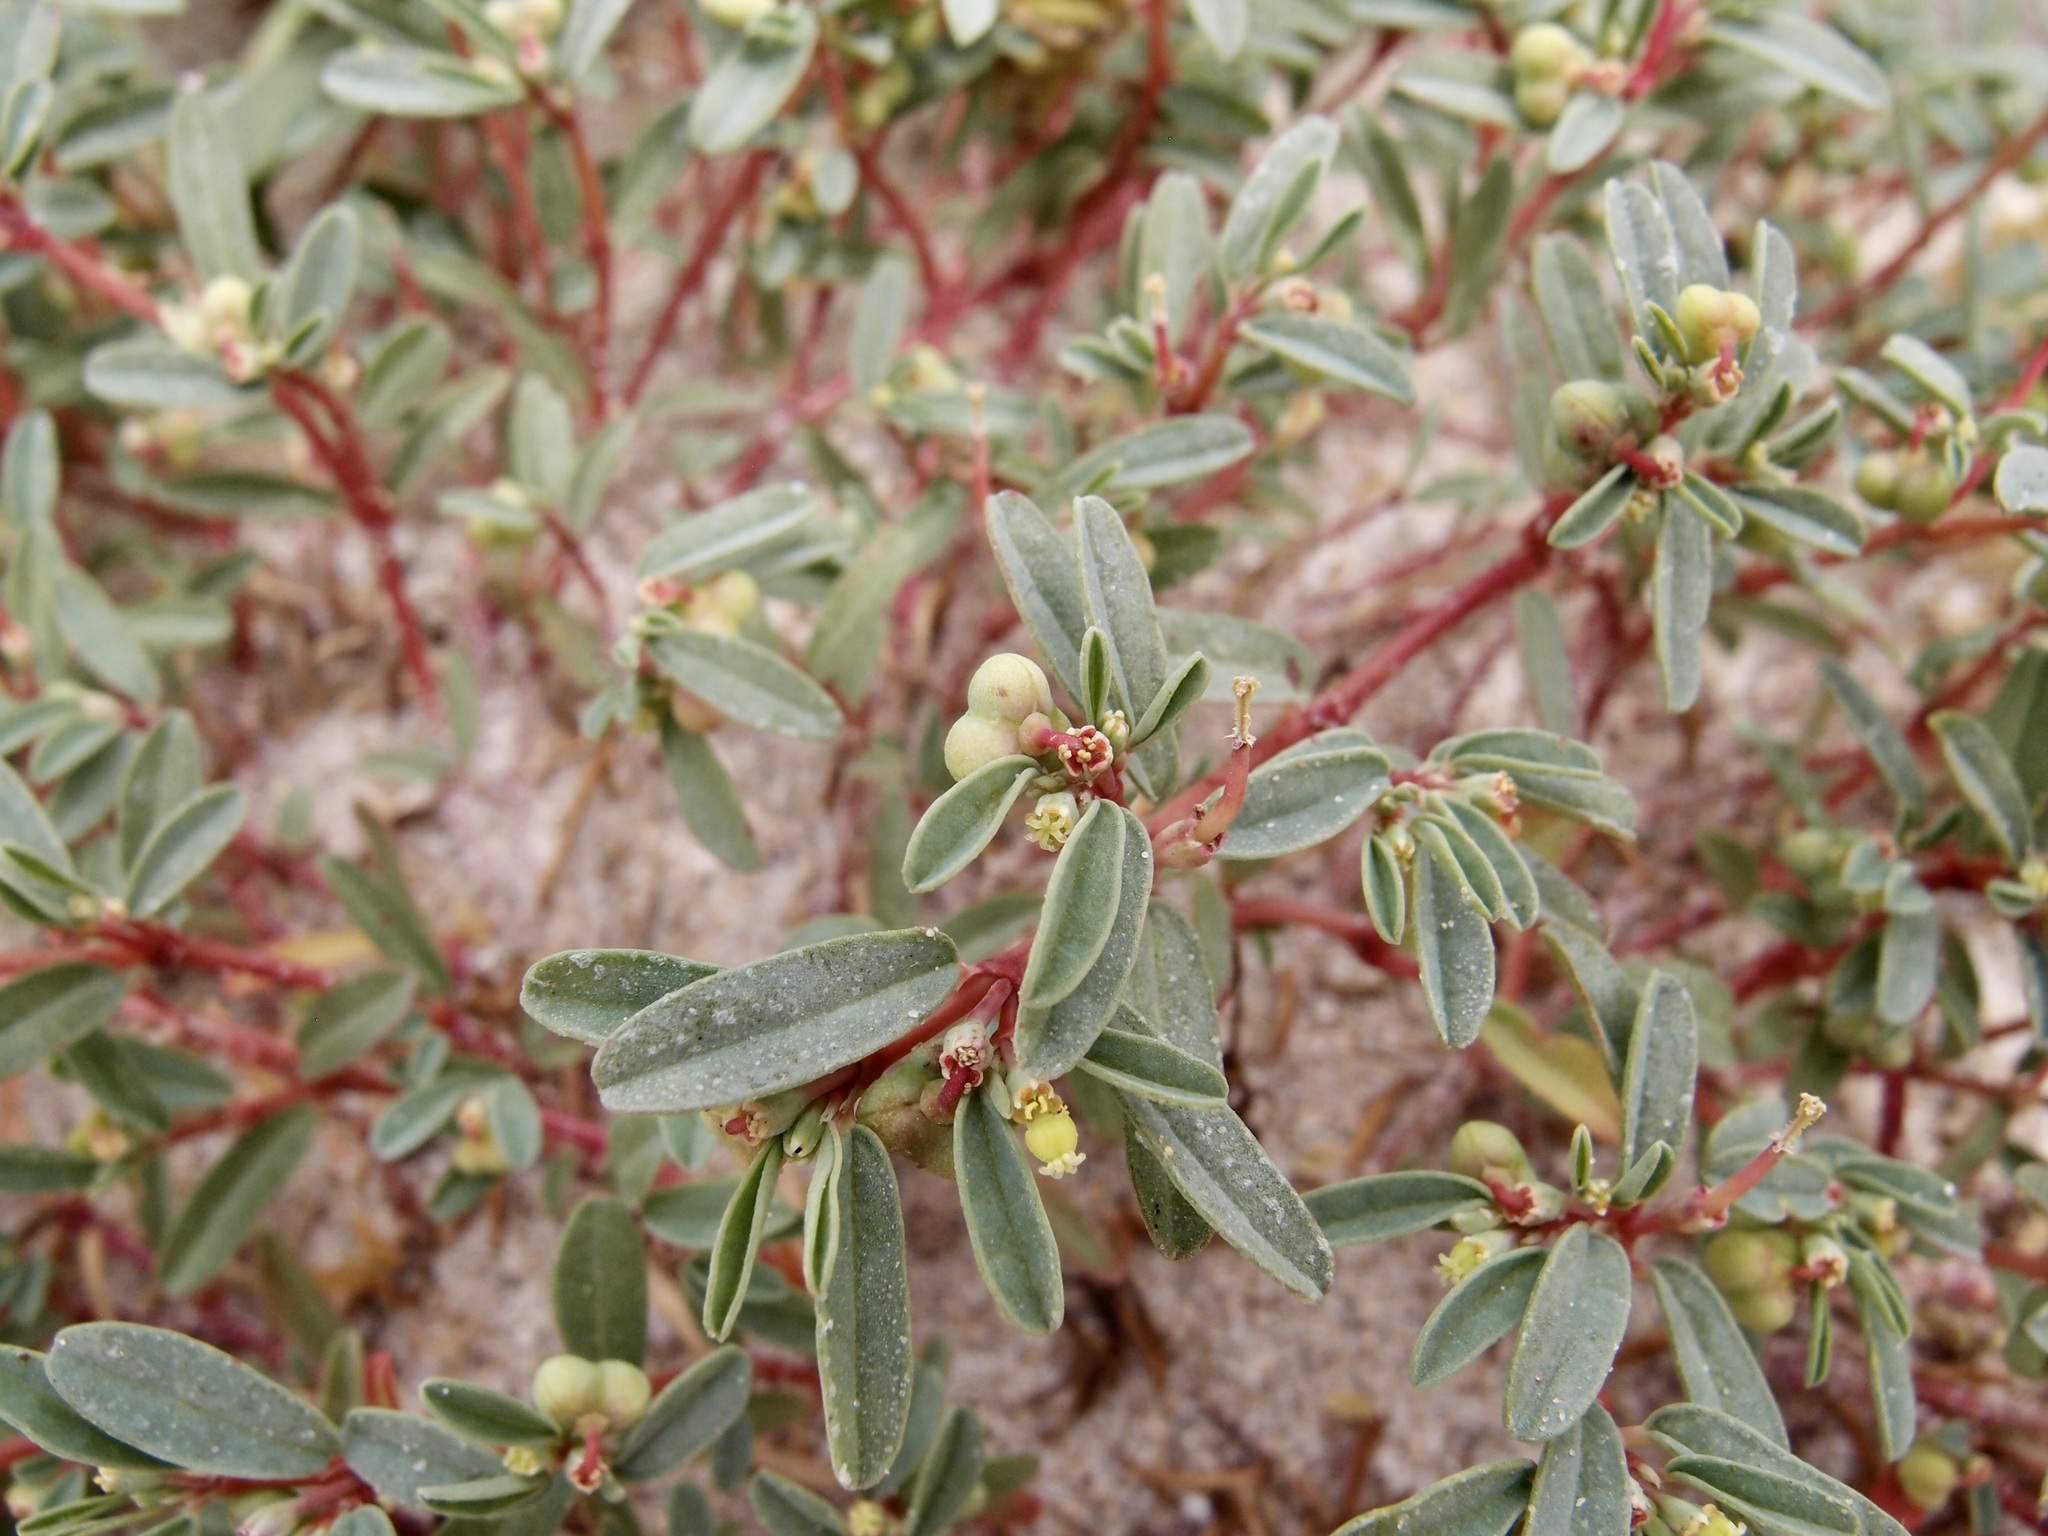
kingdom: Plantae
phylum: Tracheophyta
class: Magnoliopsida
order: Malpighiales
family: Euphorbiaceae
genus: Euphorbia
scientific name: Euphorbia incerta
